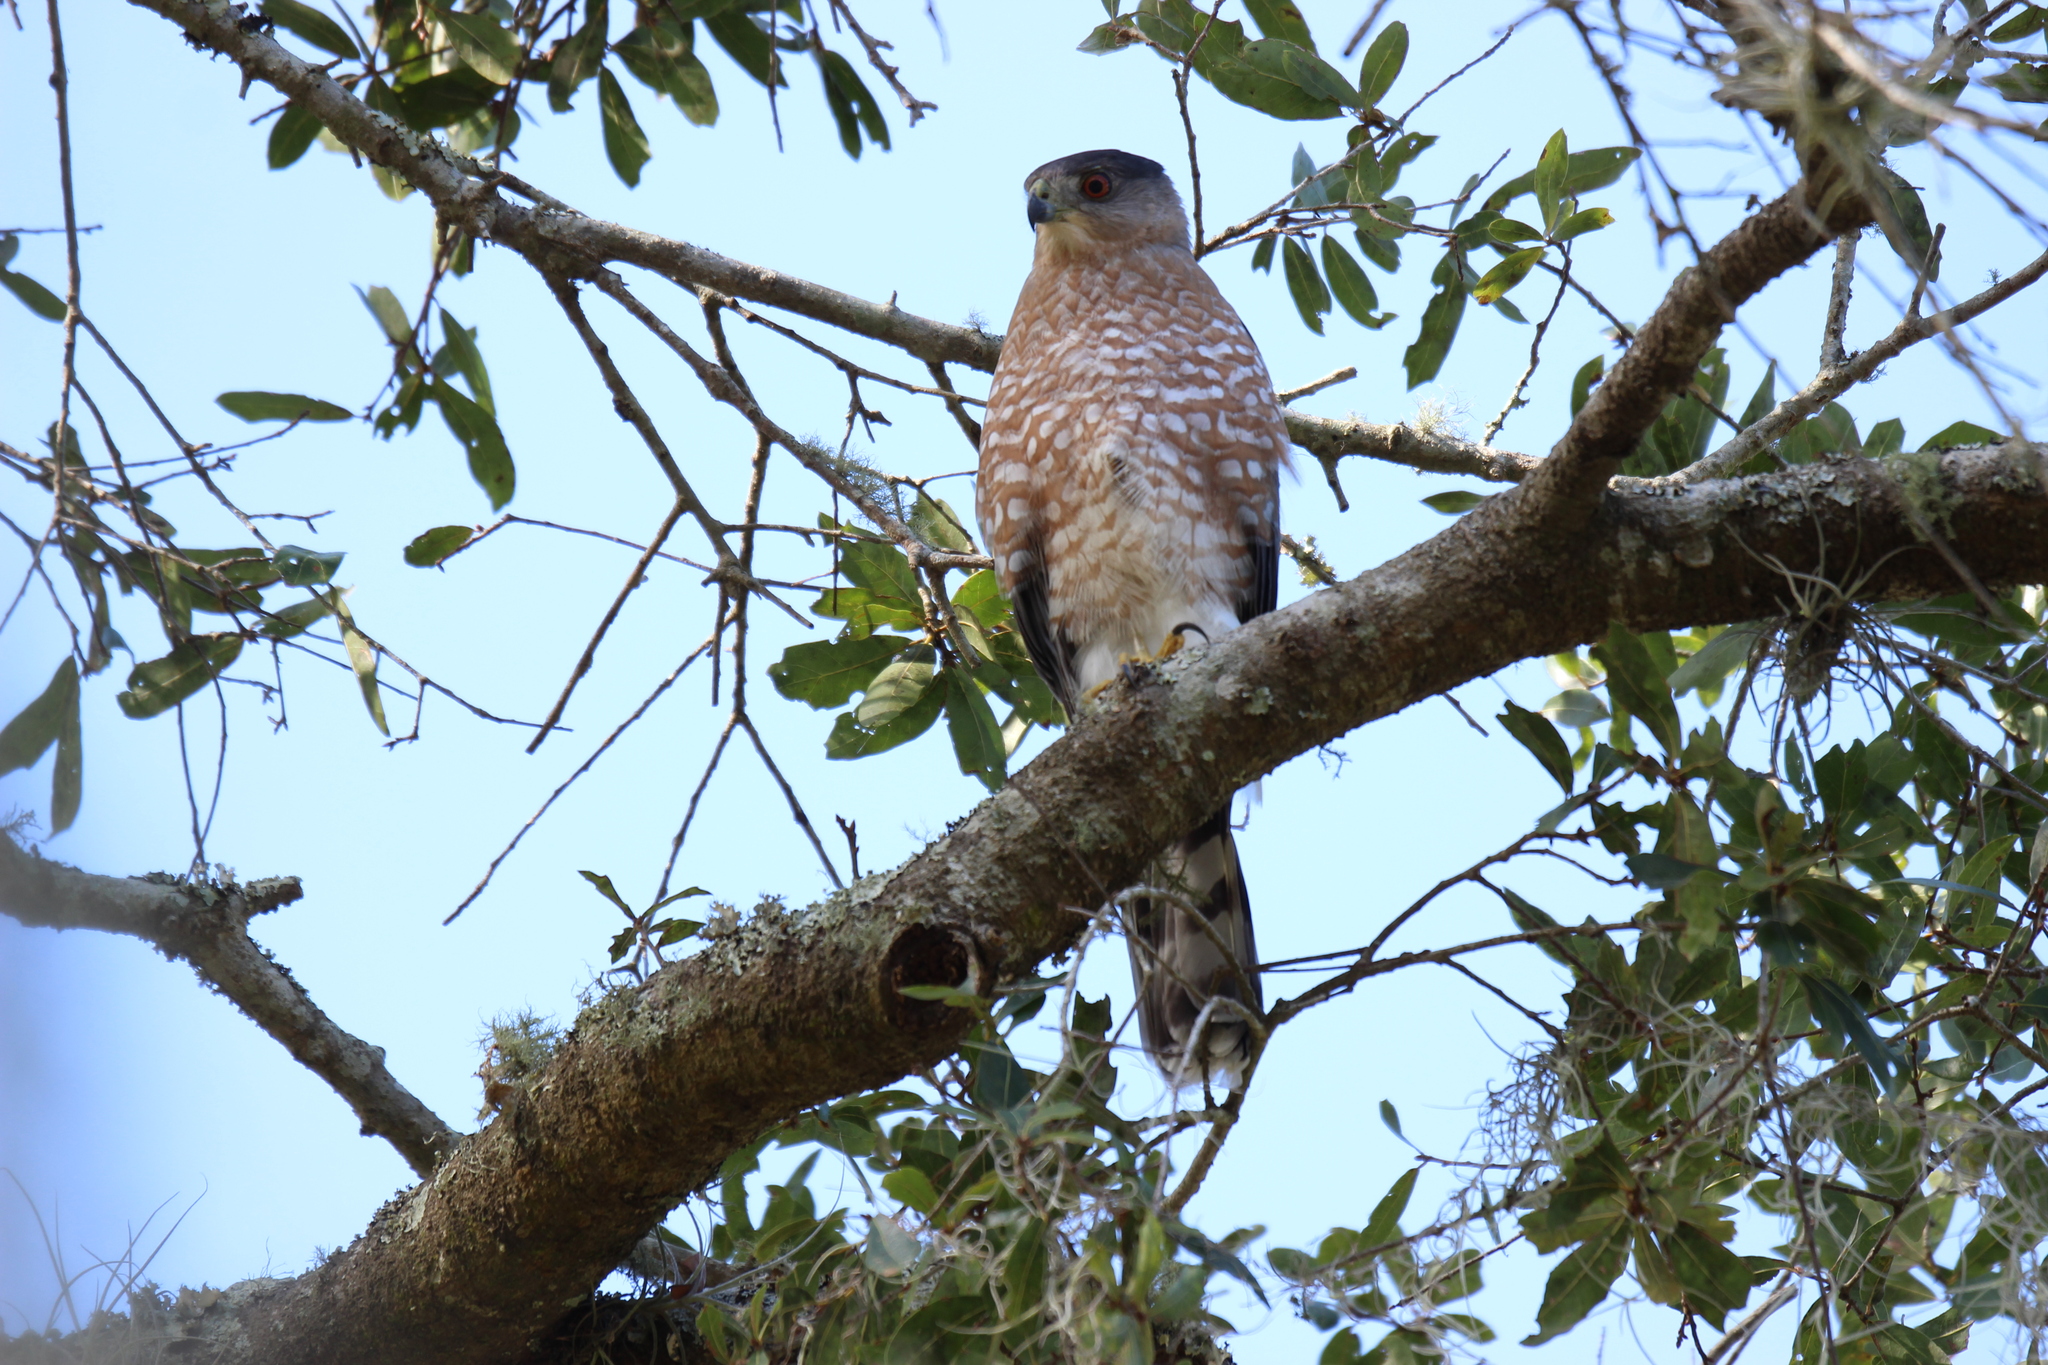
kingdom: Animalia
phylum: Chordata
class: Aves
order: Accipitriformes
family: Accipitridae
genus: Accipiter
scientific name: Accipiter cooperii
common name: Cooper's hawk
